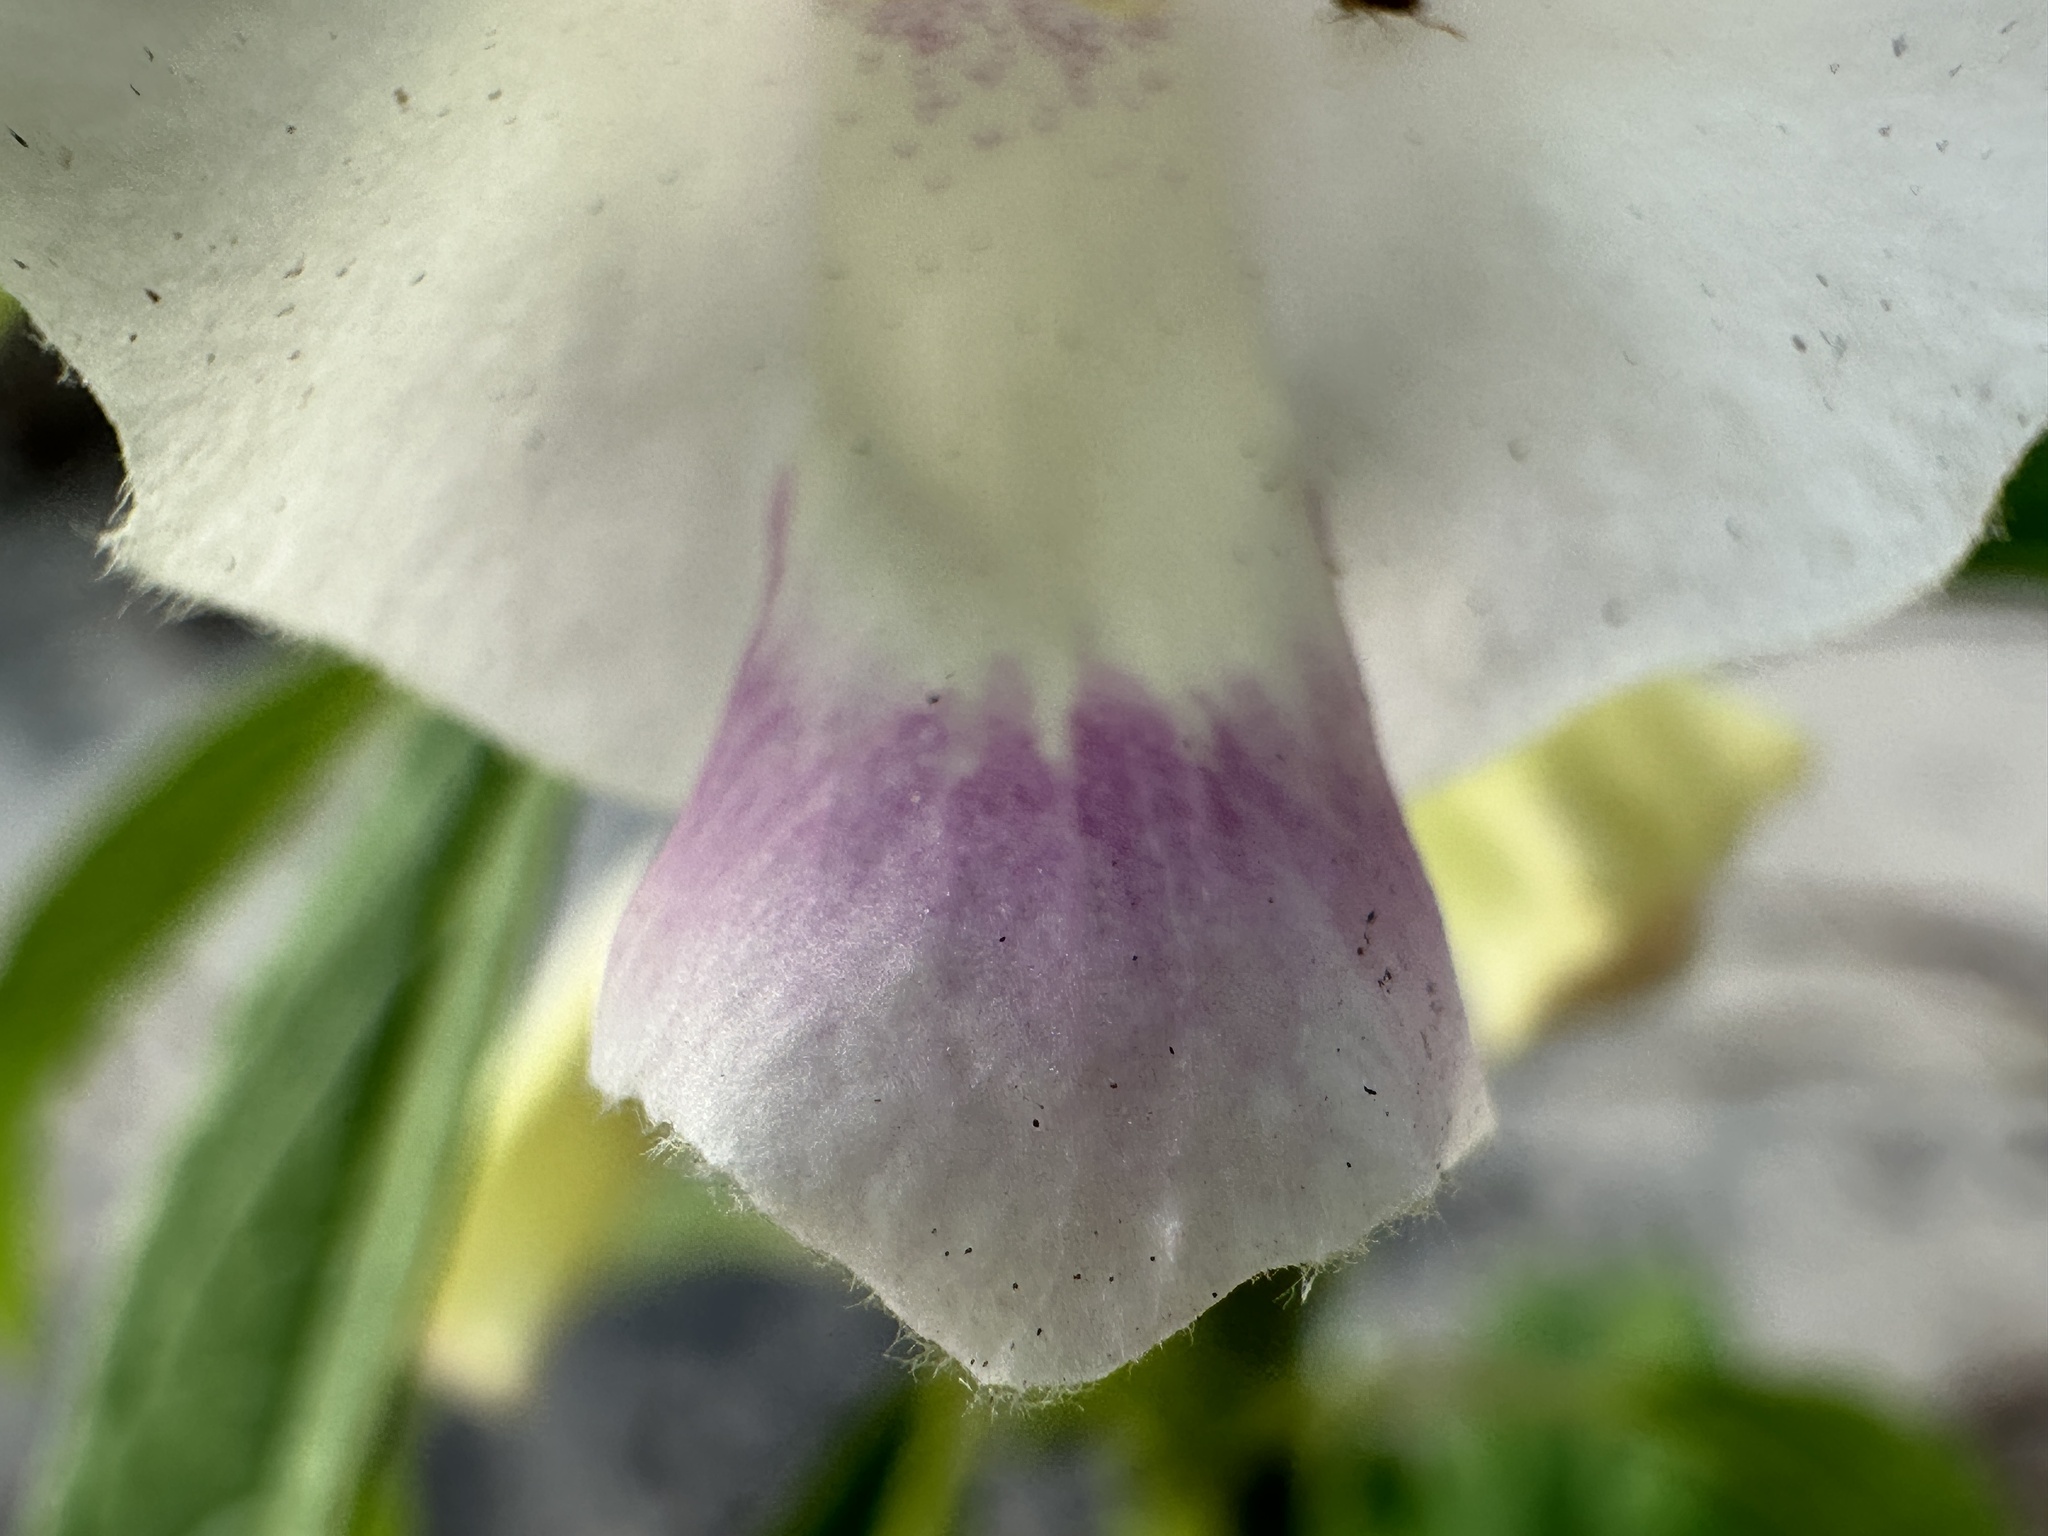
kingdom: Plantae
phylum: Tracheophyta
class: Magnoliopsida
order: Lamiales
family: Pedaliaceae
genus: Sesamum
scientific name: Sesamum indicum
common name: Sesame
